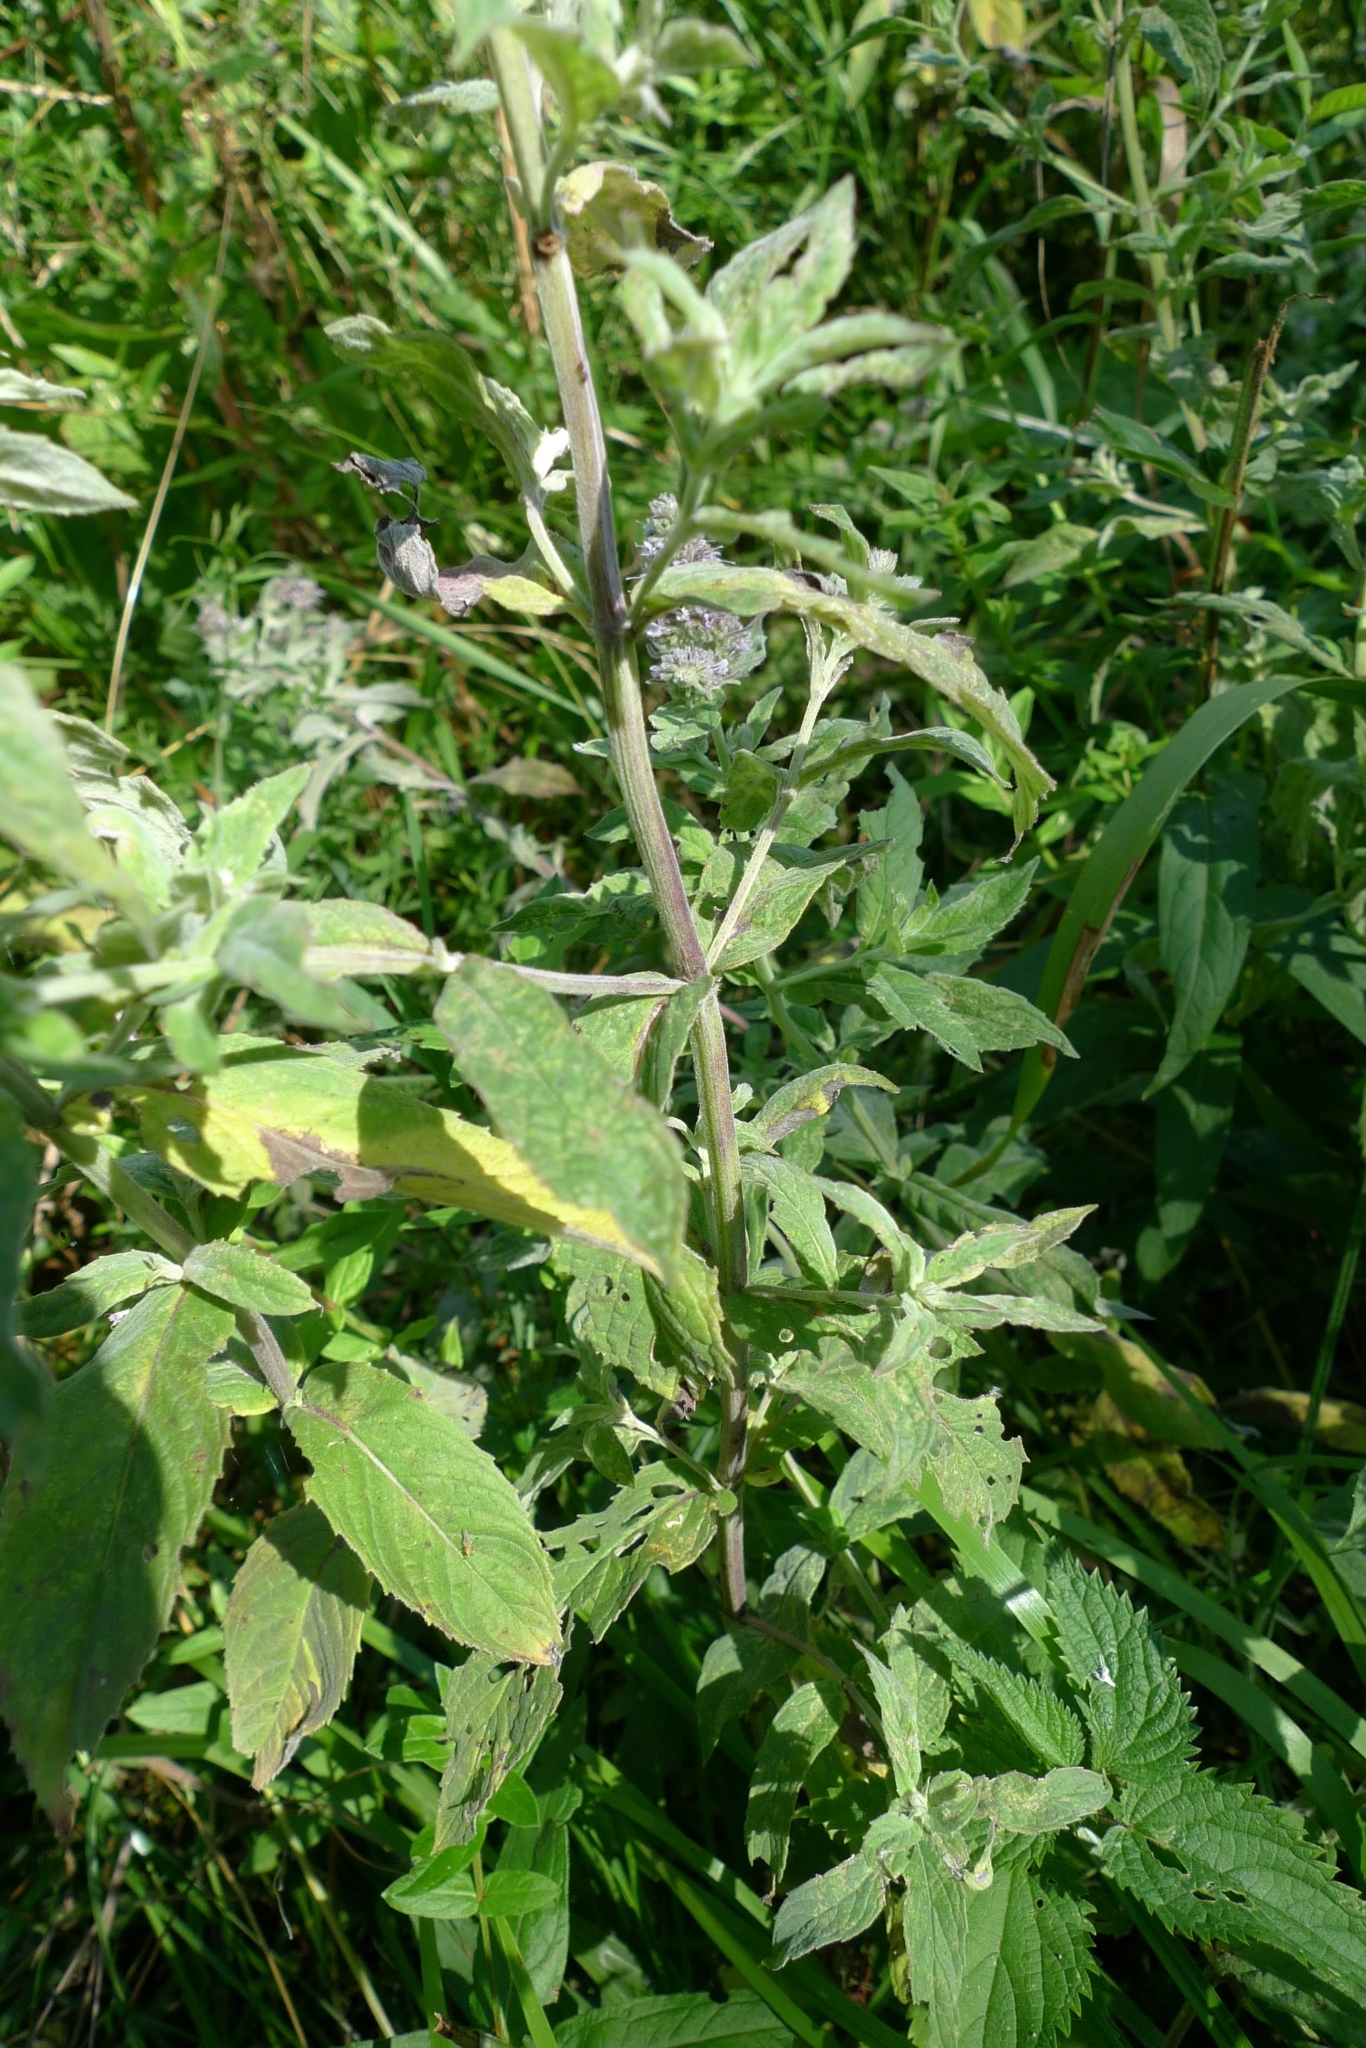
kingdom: Plantae
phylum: Tracheophyta
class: Magnoliopsida
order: Lamiales
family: Lamiaceae
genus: Mentha
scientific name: Mentha longifolia
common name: Horse mint
